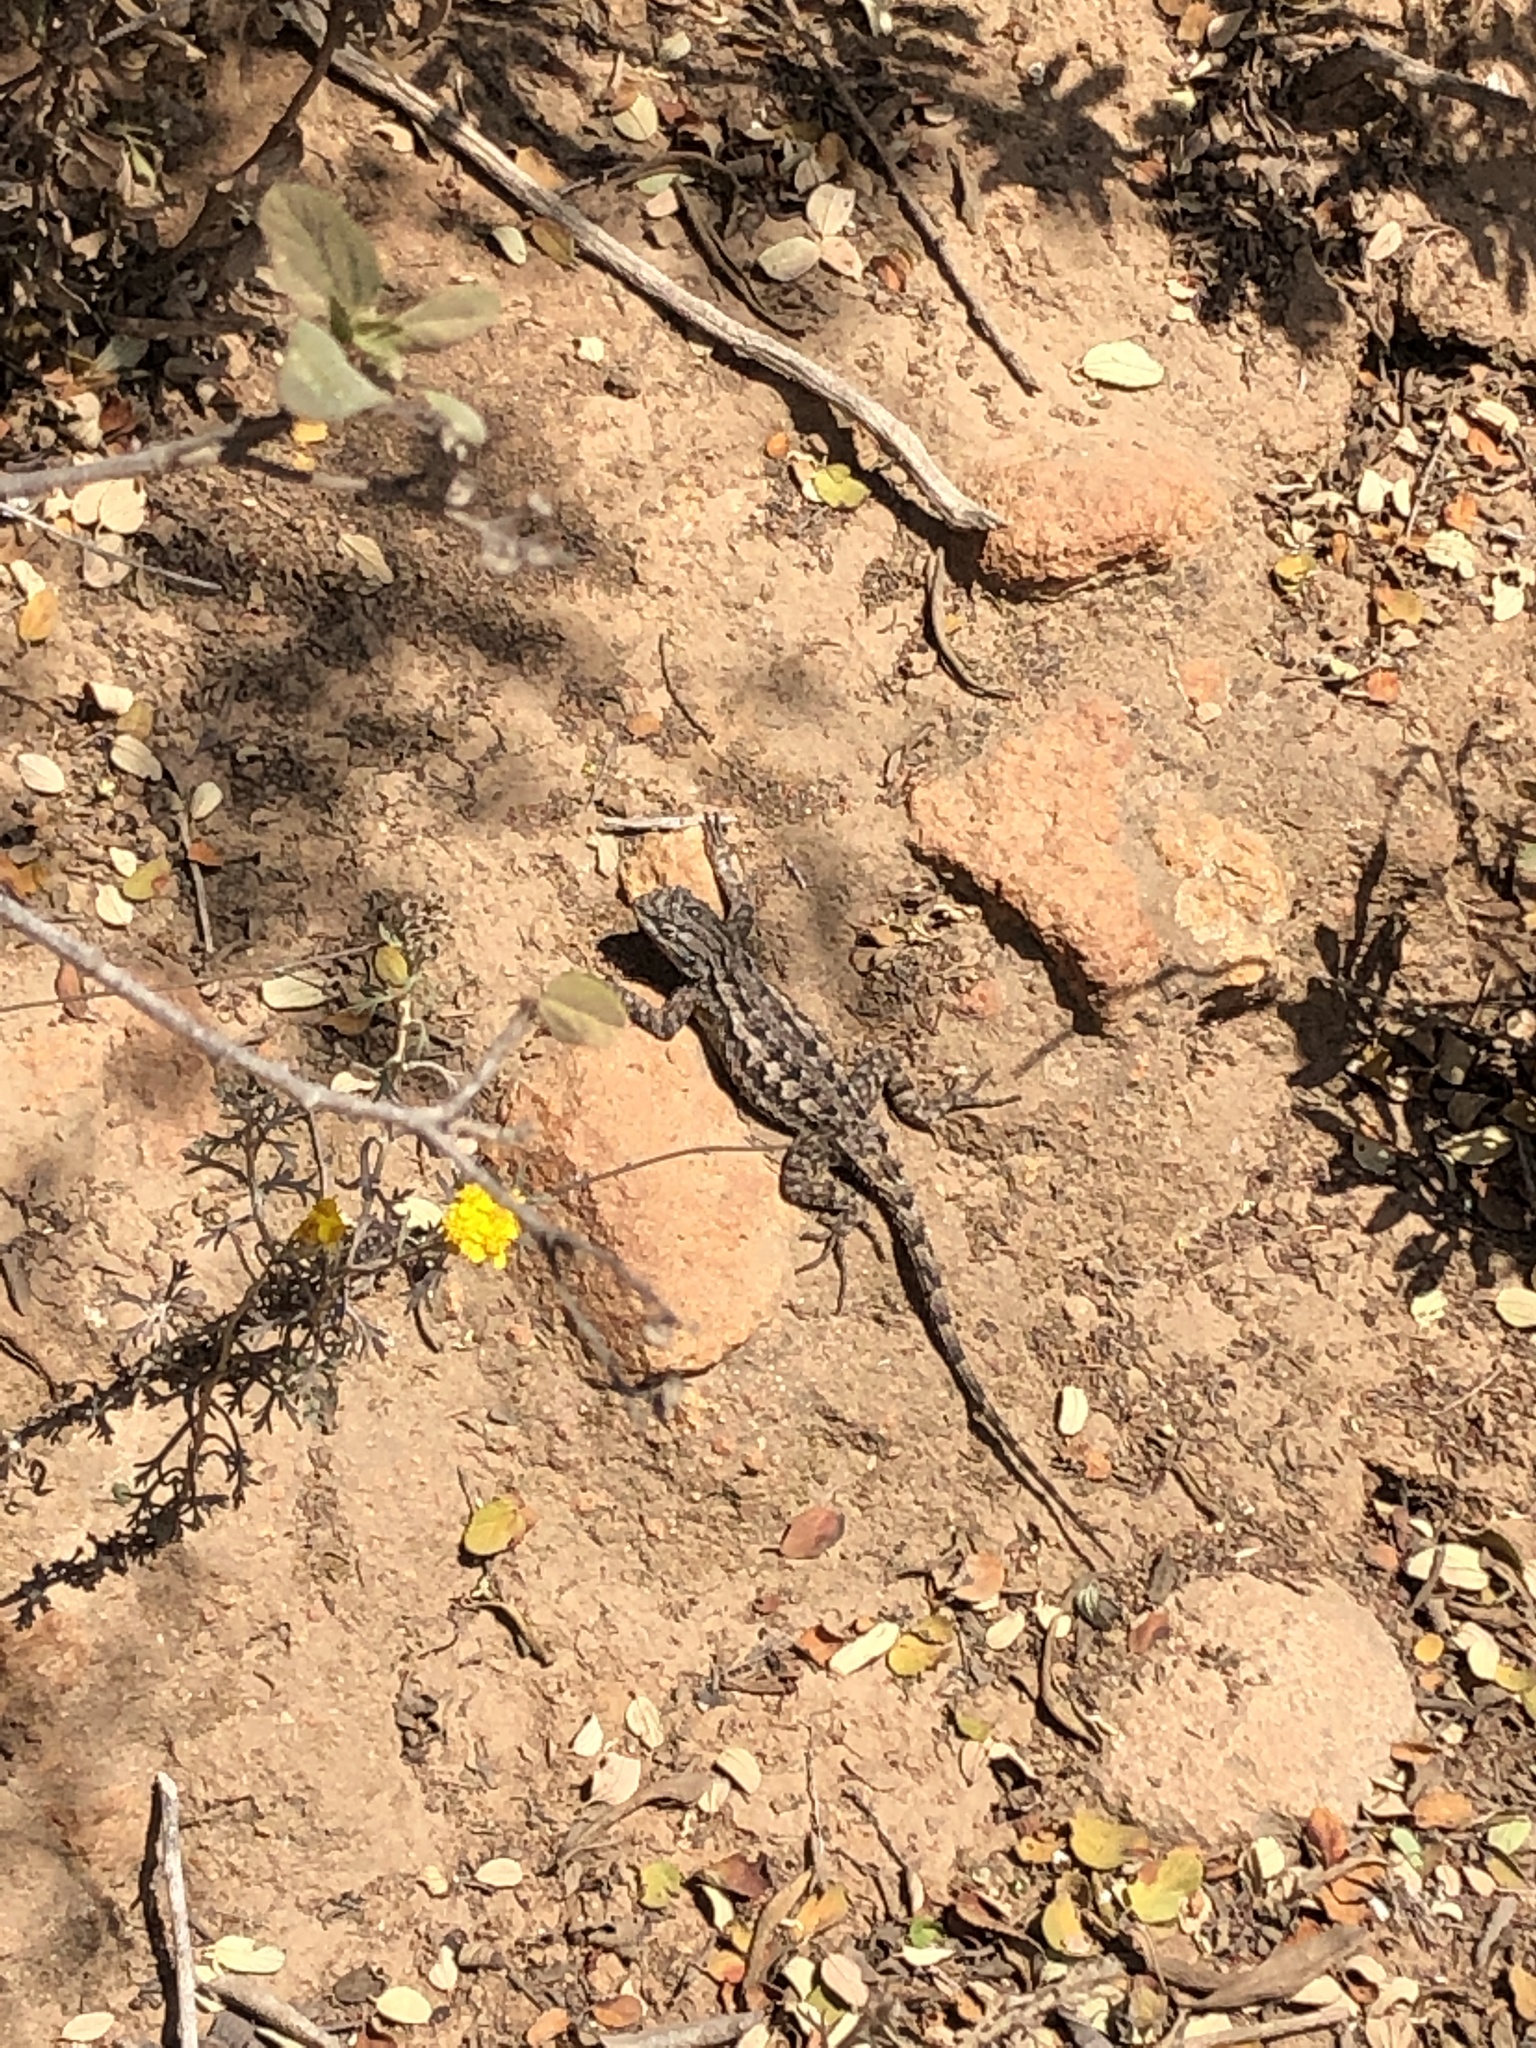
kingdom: Animalia
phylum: Chordata
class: Squamata
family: Phrynosomatidae
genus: Sceloporus
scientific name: Sceloporus occidentalis
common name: Western fence lizard
